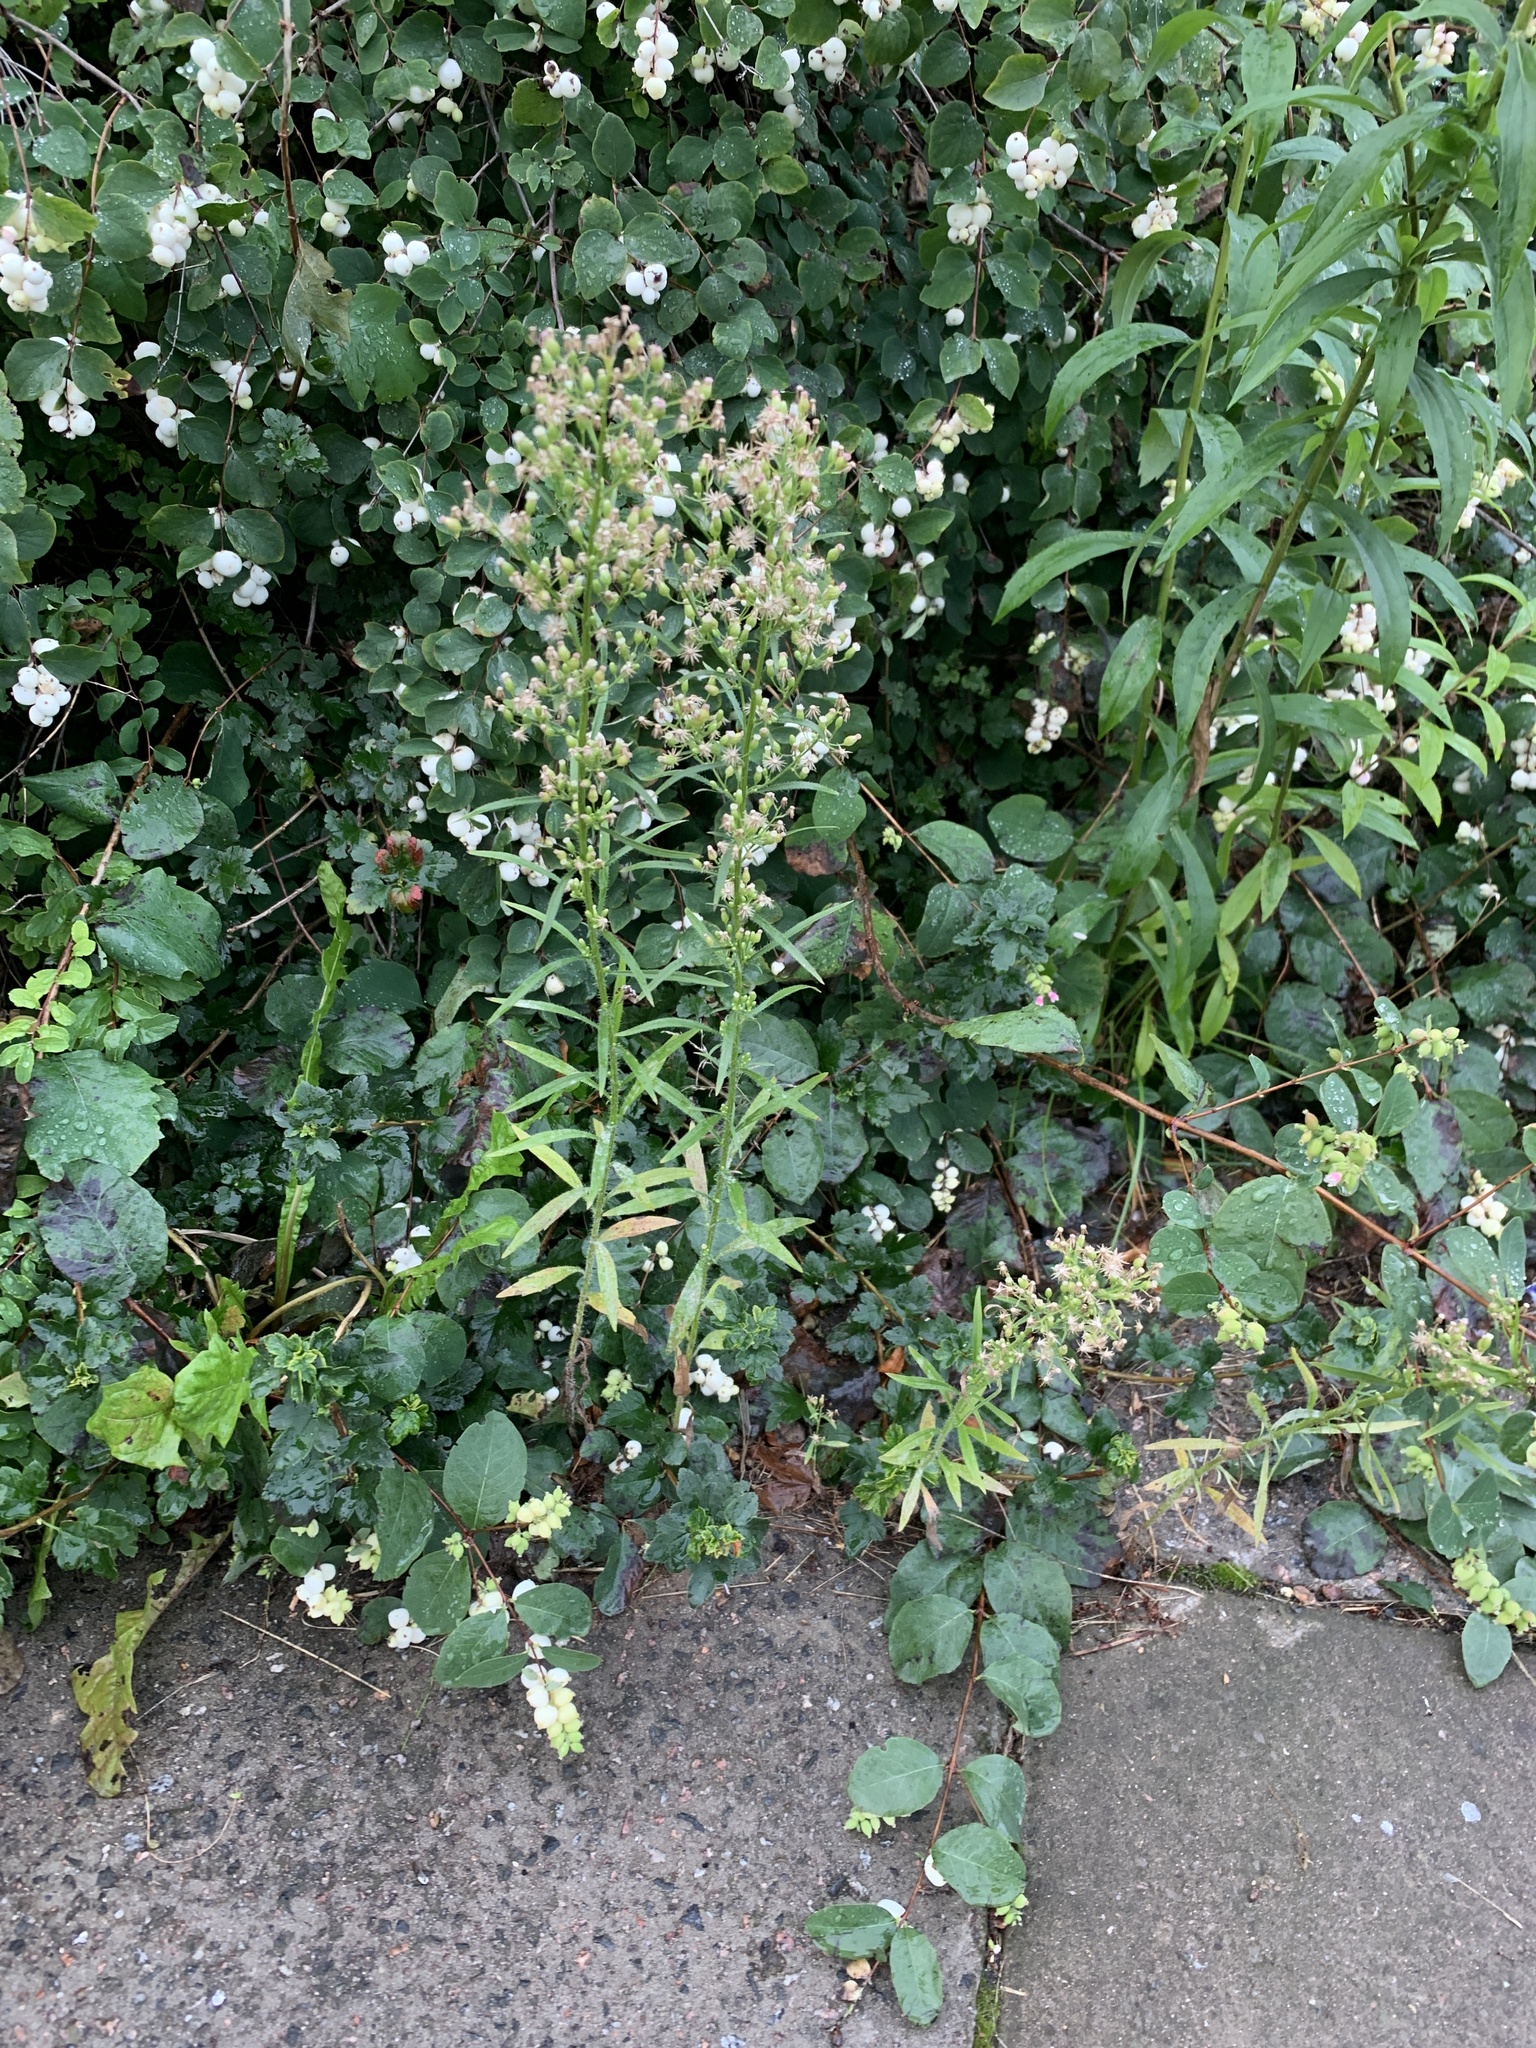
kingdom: Plantae
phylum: Tracheophyta
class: Magnoliopsida
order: Asterales
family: Asteraceae
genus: Erigeron
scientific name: Erigeron canadensis
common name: Canadian fleabane
